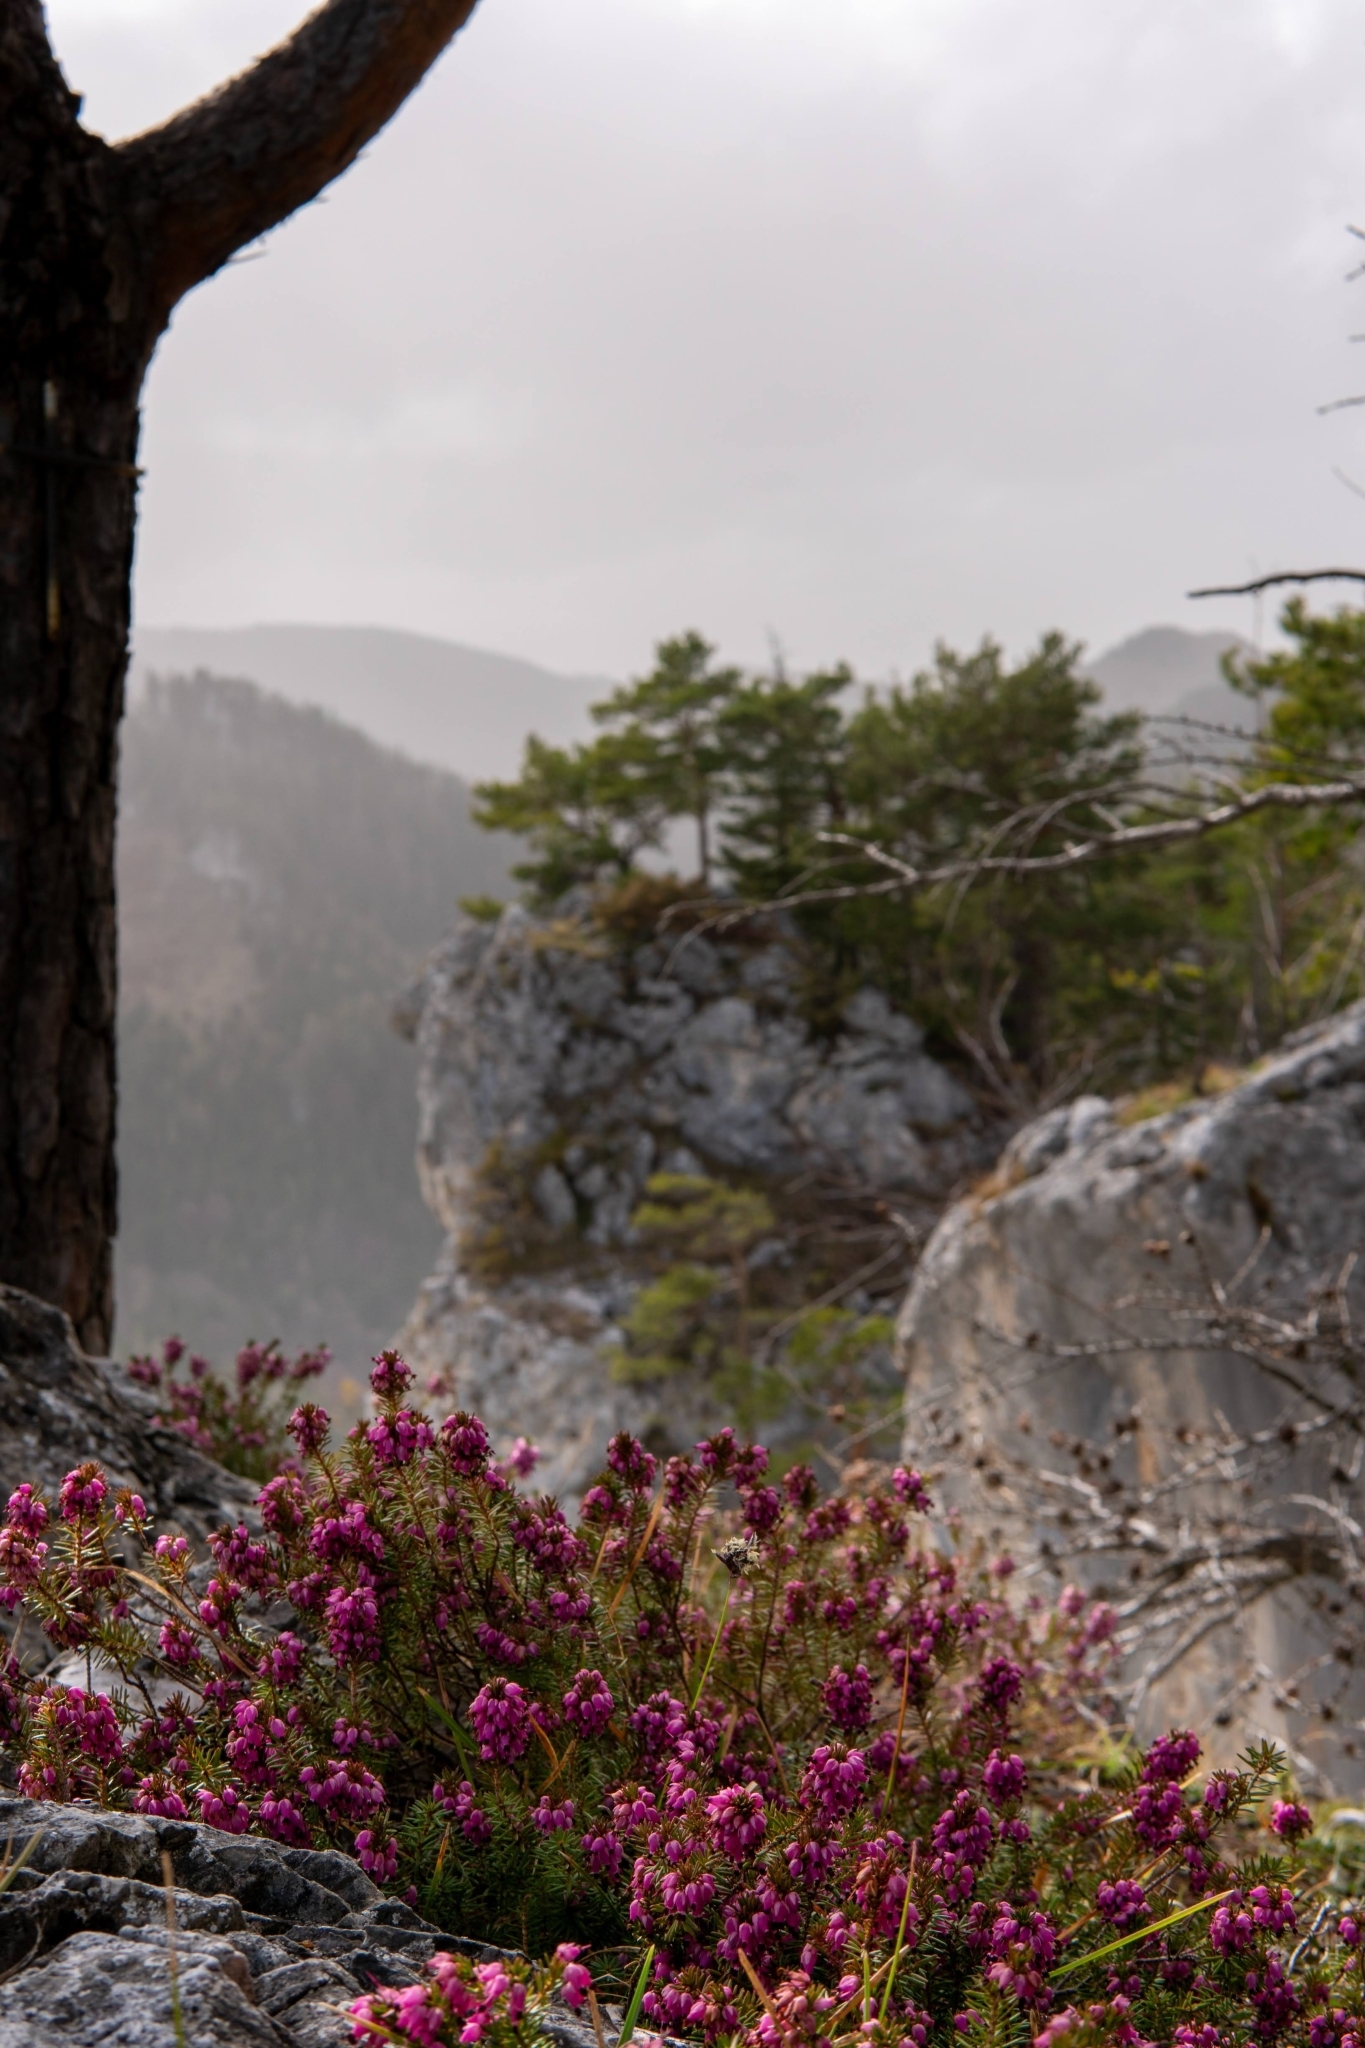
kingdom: Plantae
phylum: Tracheophyta
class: Magnoliopsida
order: Ericales
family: Ericaceae
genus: Erica
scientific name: Erica carnea
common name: Winter heath
